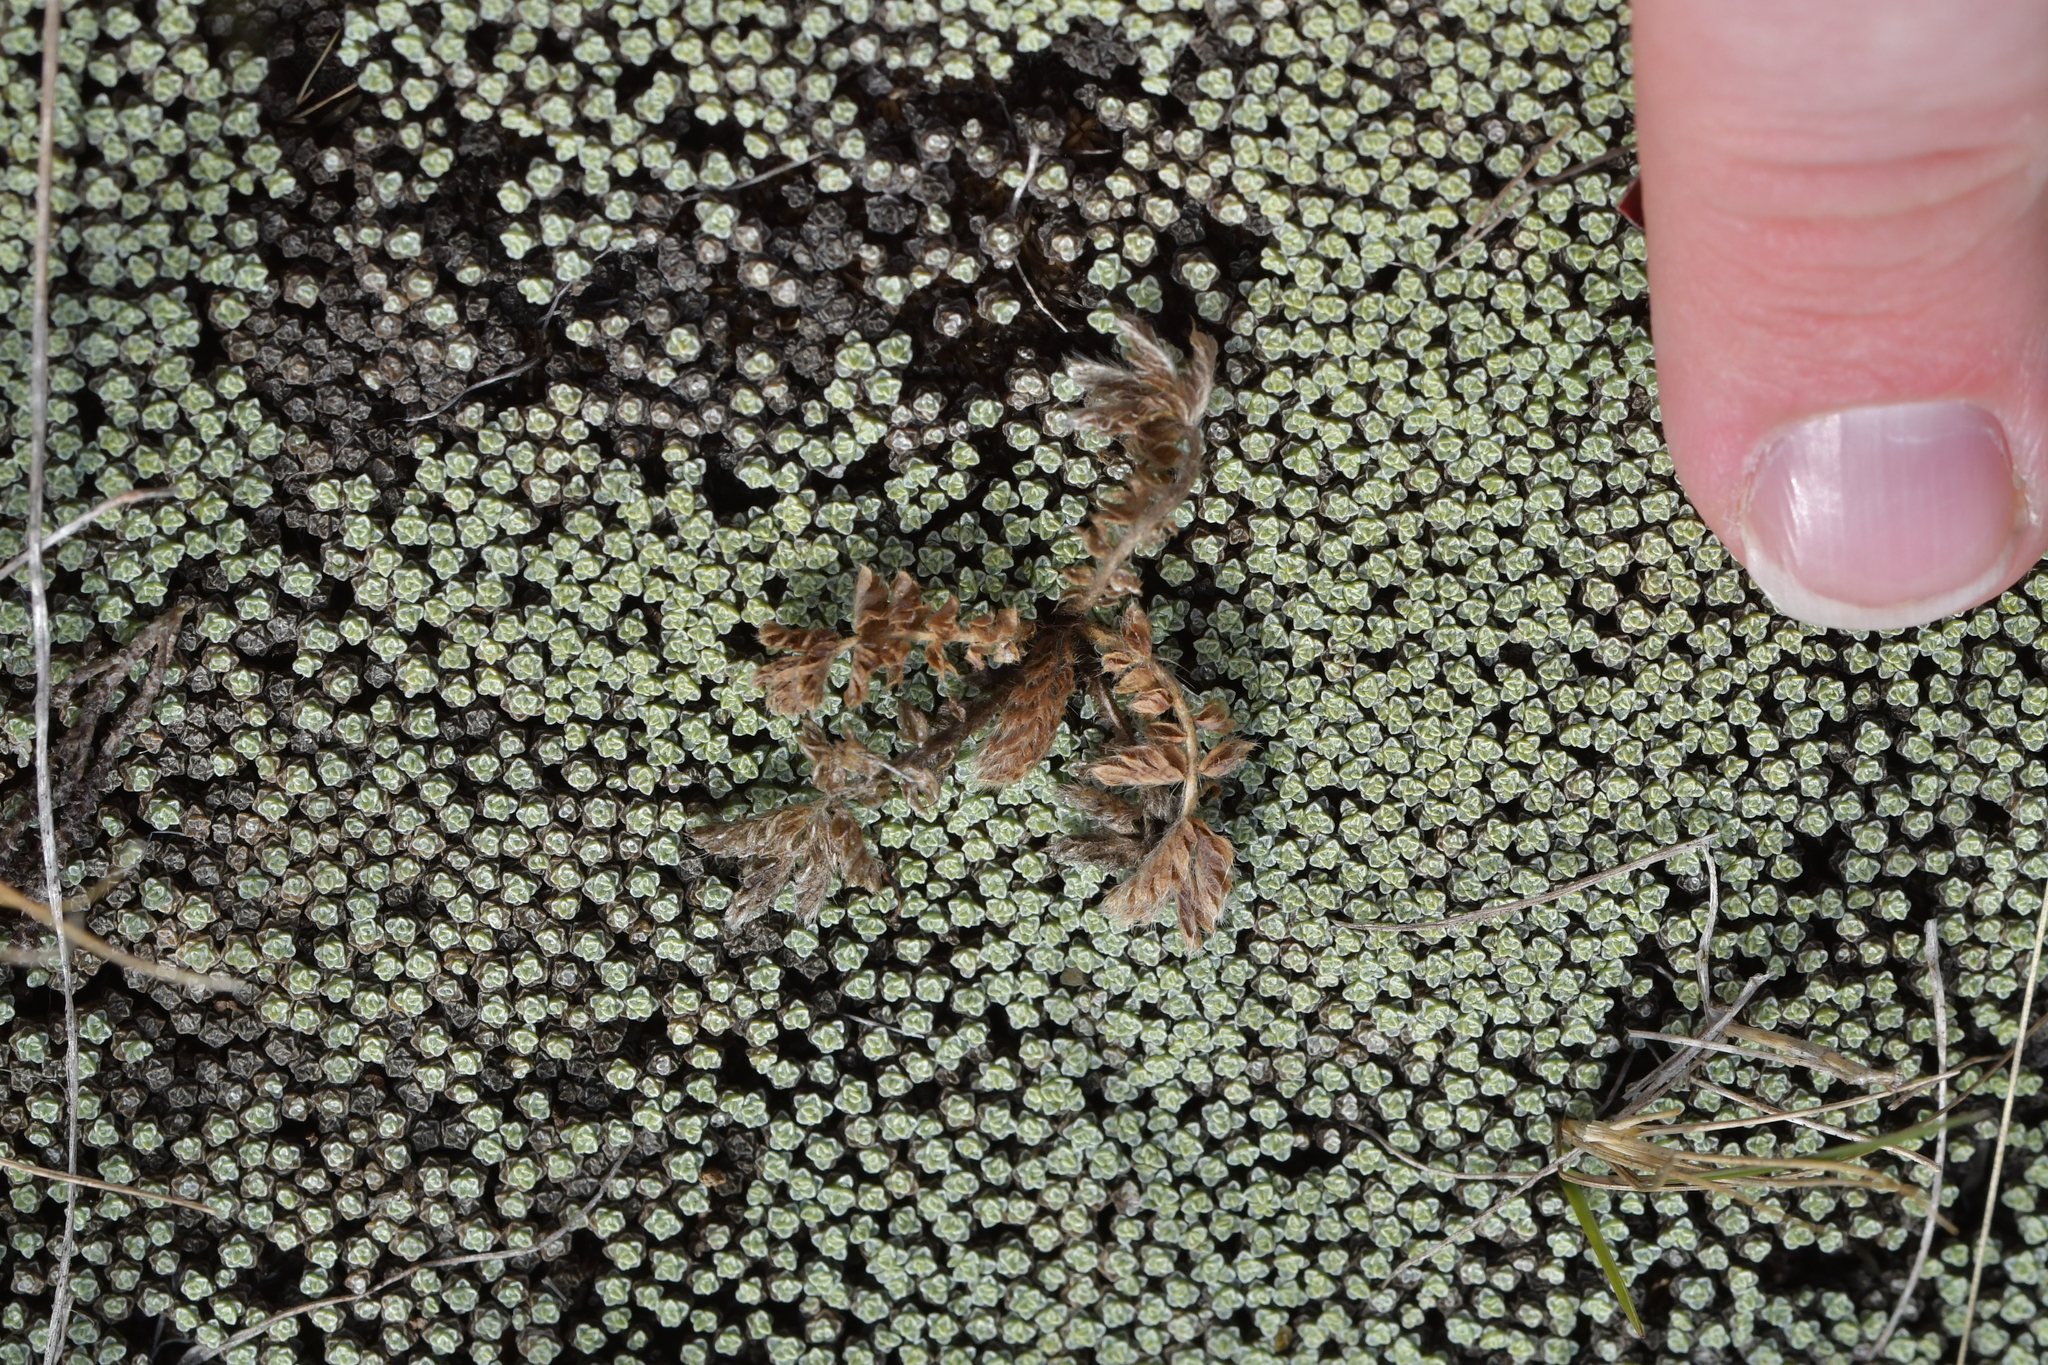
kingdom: Plantae
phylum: Tracheophyta
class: Magnoliopsida
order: Asterales
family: Asteraceae
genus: Raoulia
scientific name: Raoulia australis
